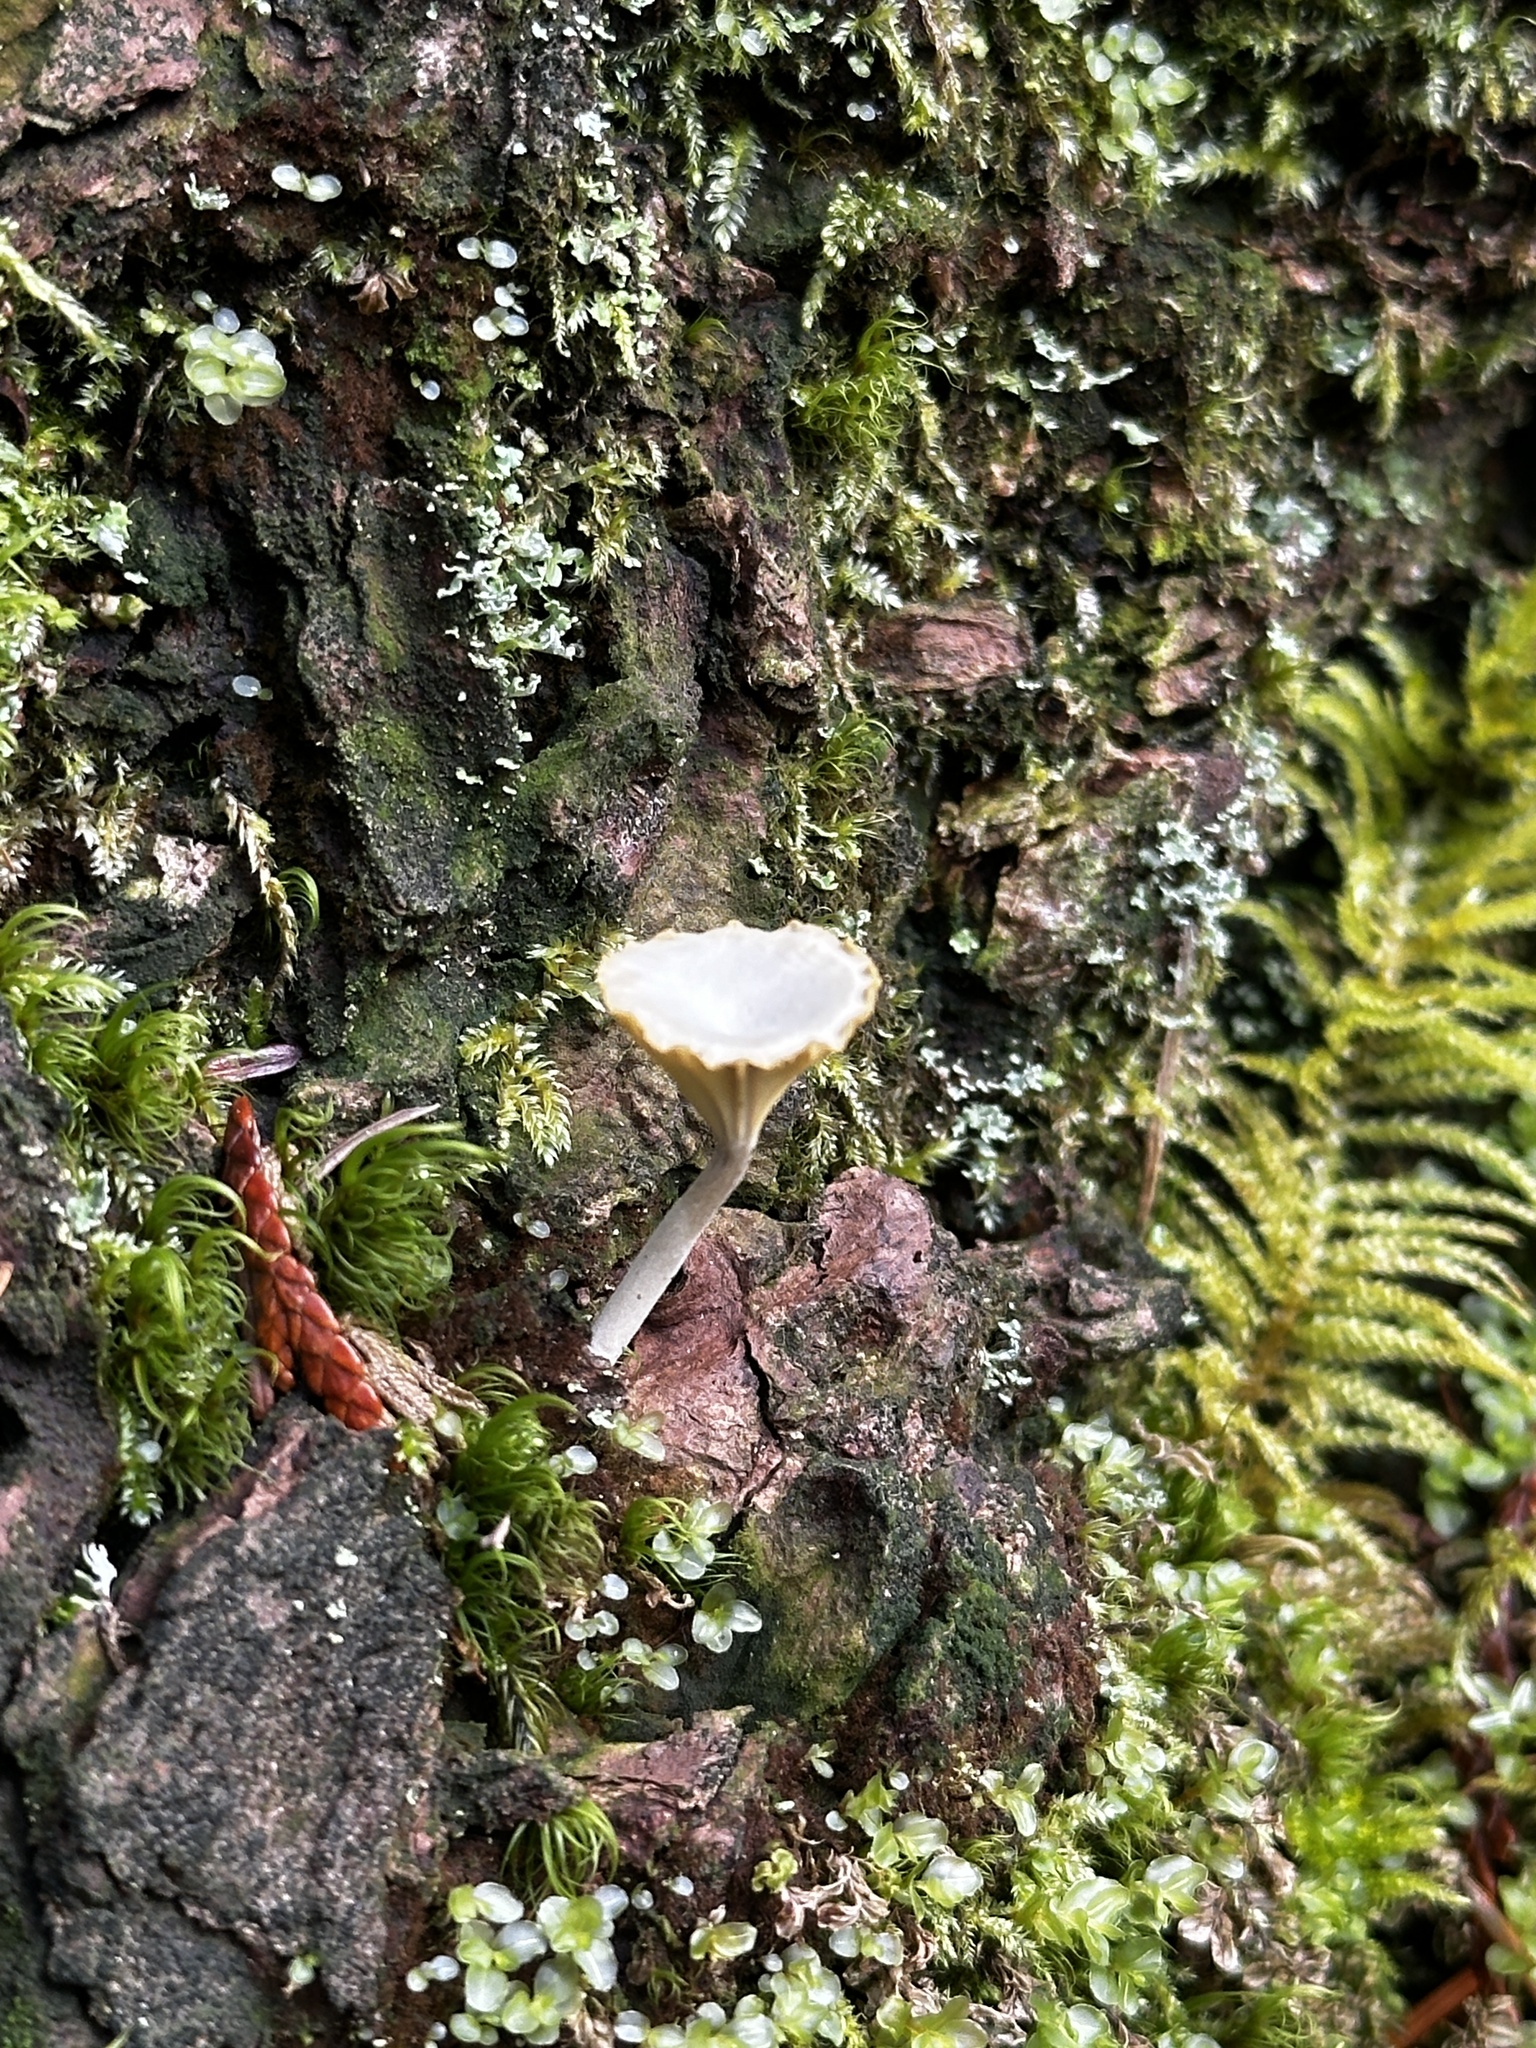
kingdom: Fungi
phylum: Basidiomycota
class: Agaricomycetes
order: Agaricales
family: Hygrophoraceae
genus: Lichenomphalia
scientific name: Lichenomphalia
